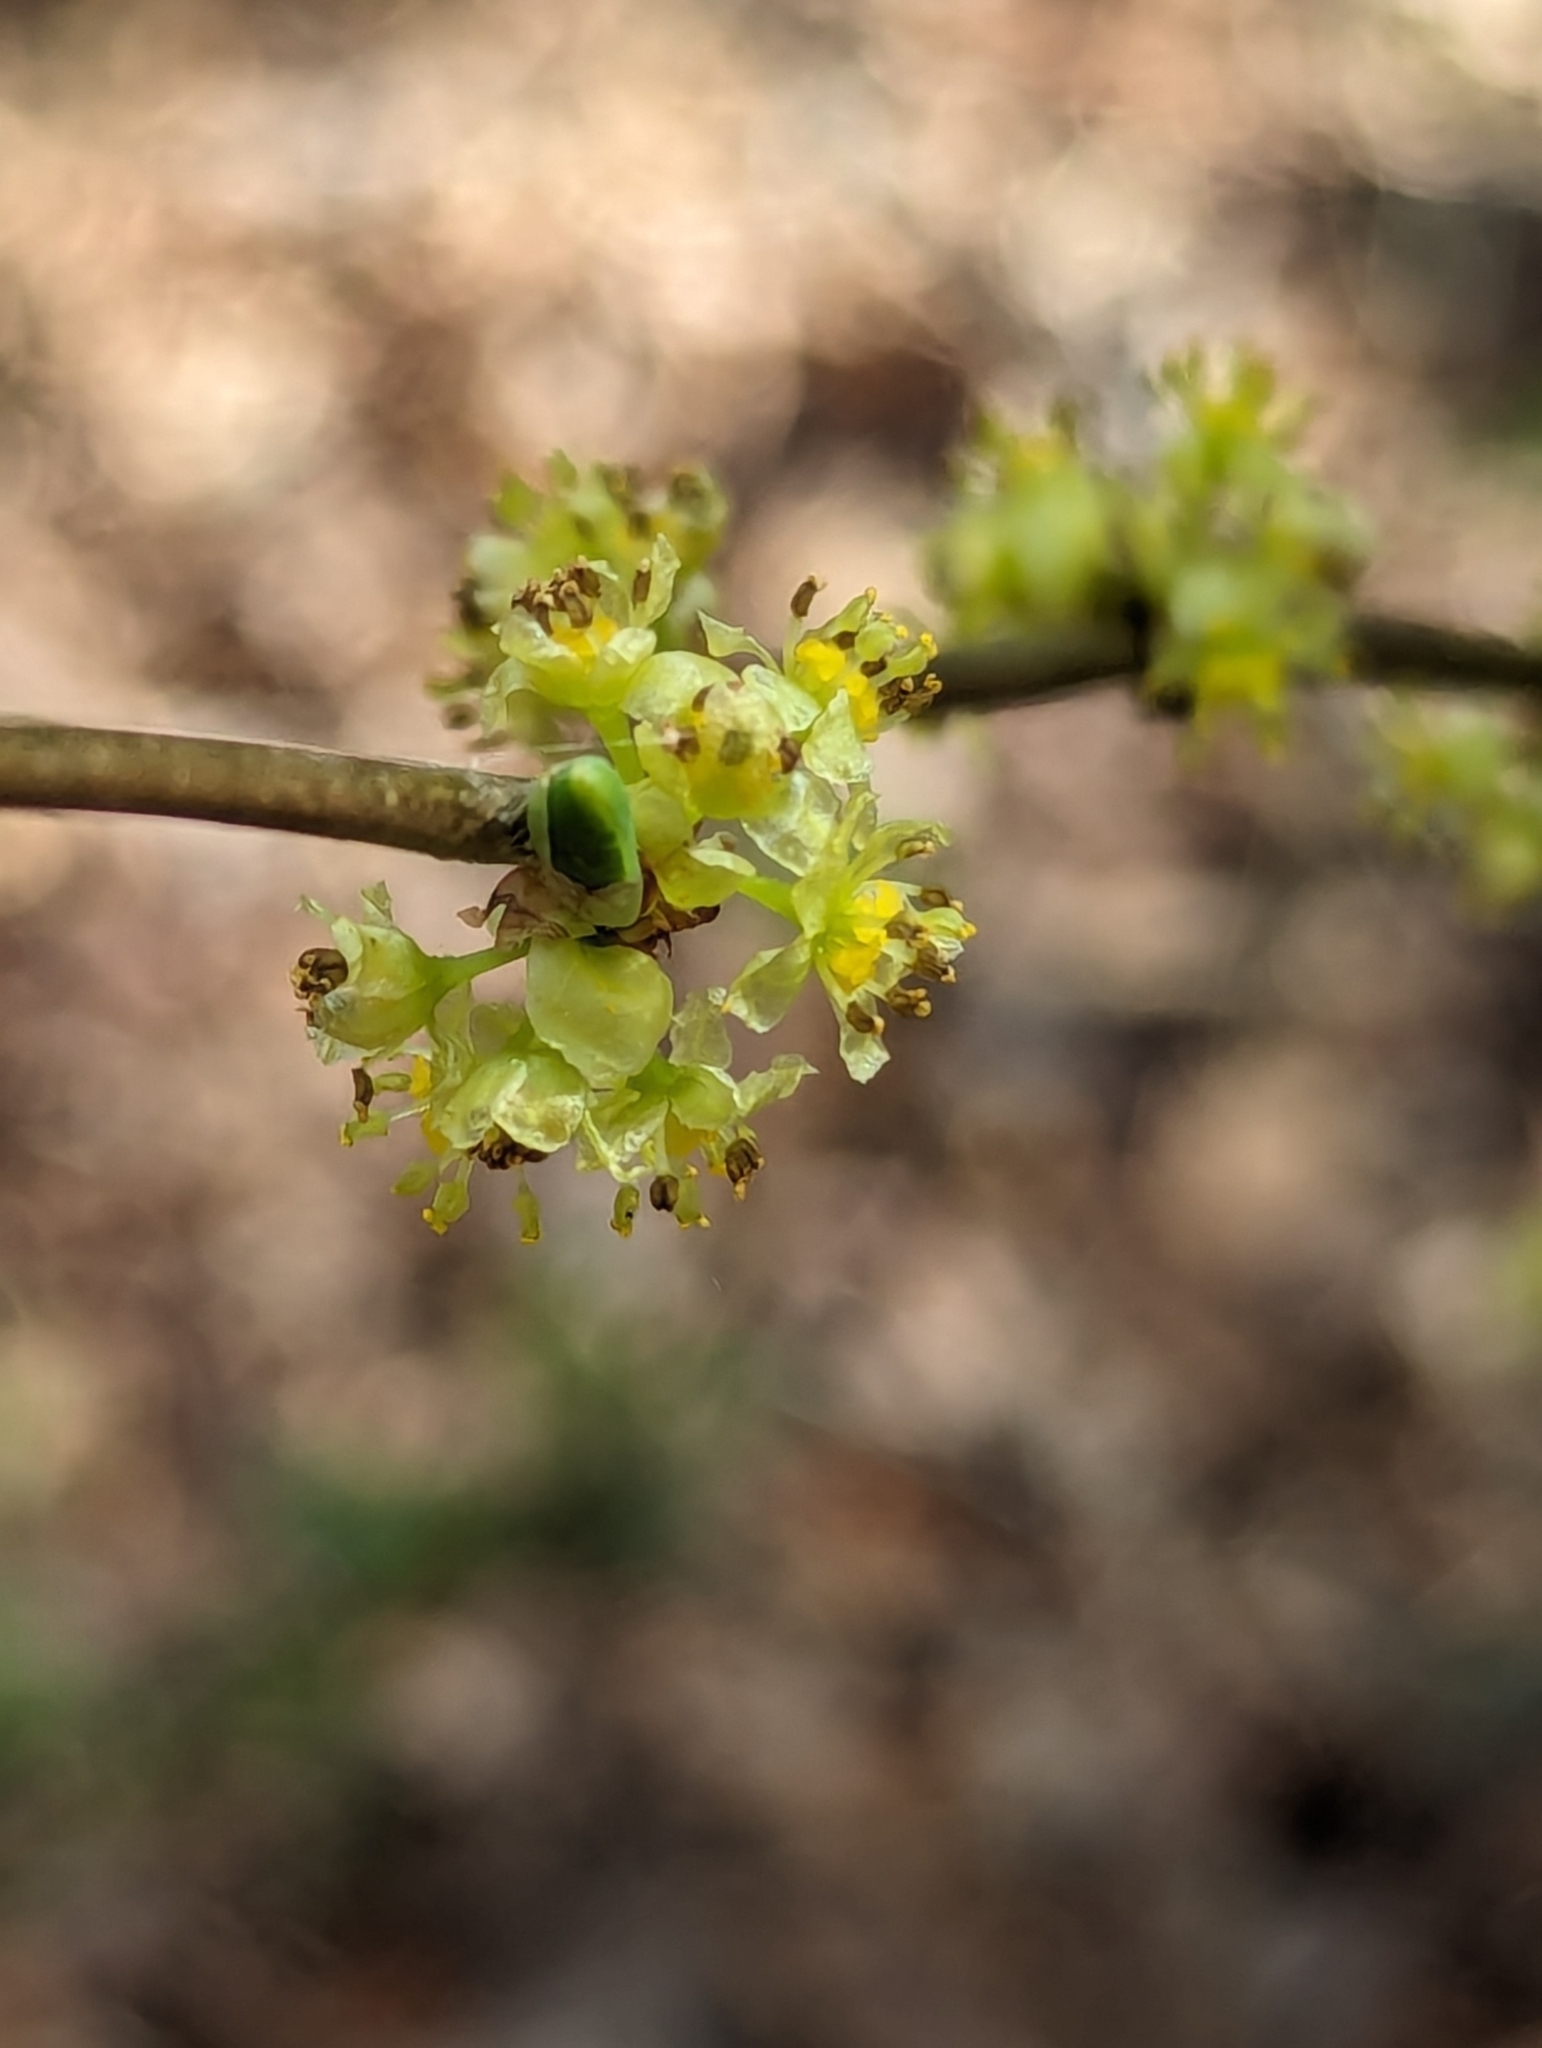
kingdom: Plantae
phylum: Tracheophyta
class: Magnoliopsida
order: Laurales
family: Lauraceae
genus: Lindera
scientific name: Lindera benzoin
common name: Spicebush
